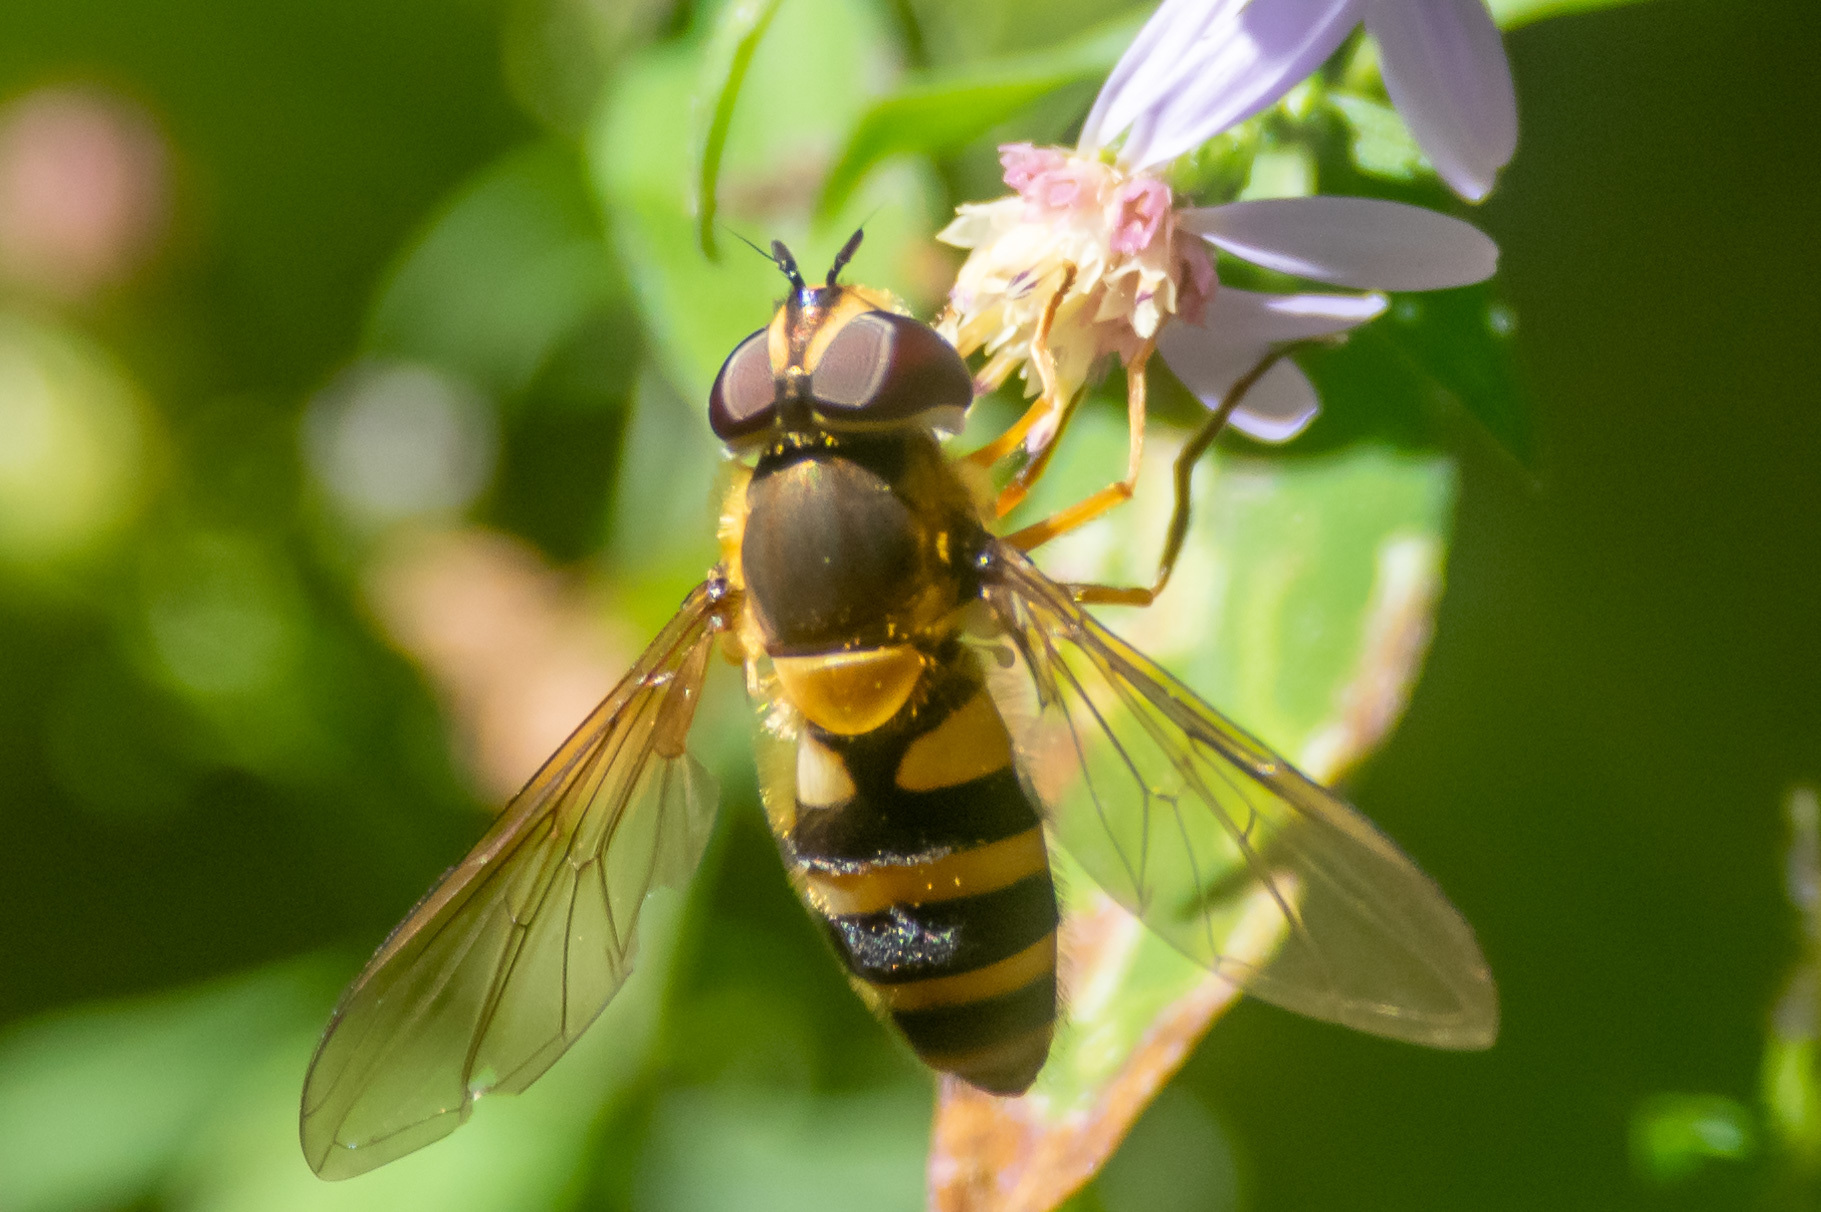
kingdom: Animalia
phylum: Arthropoda
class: Insecta
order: Diptera
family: Syrphidae
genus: Epistrophe
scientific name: Epistrophe grossulariae
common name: Black-horned smoothtail
